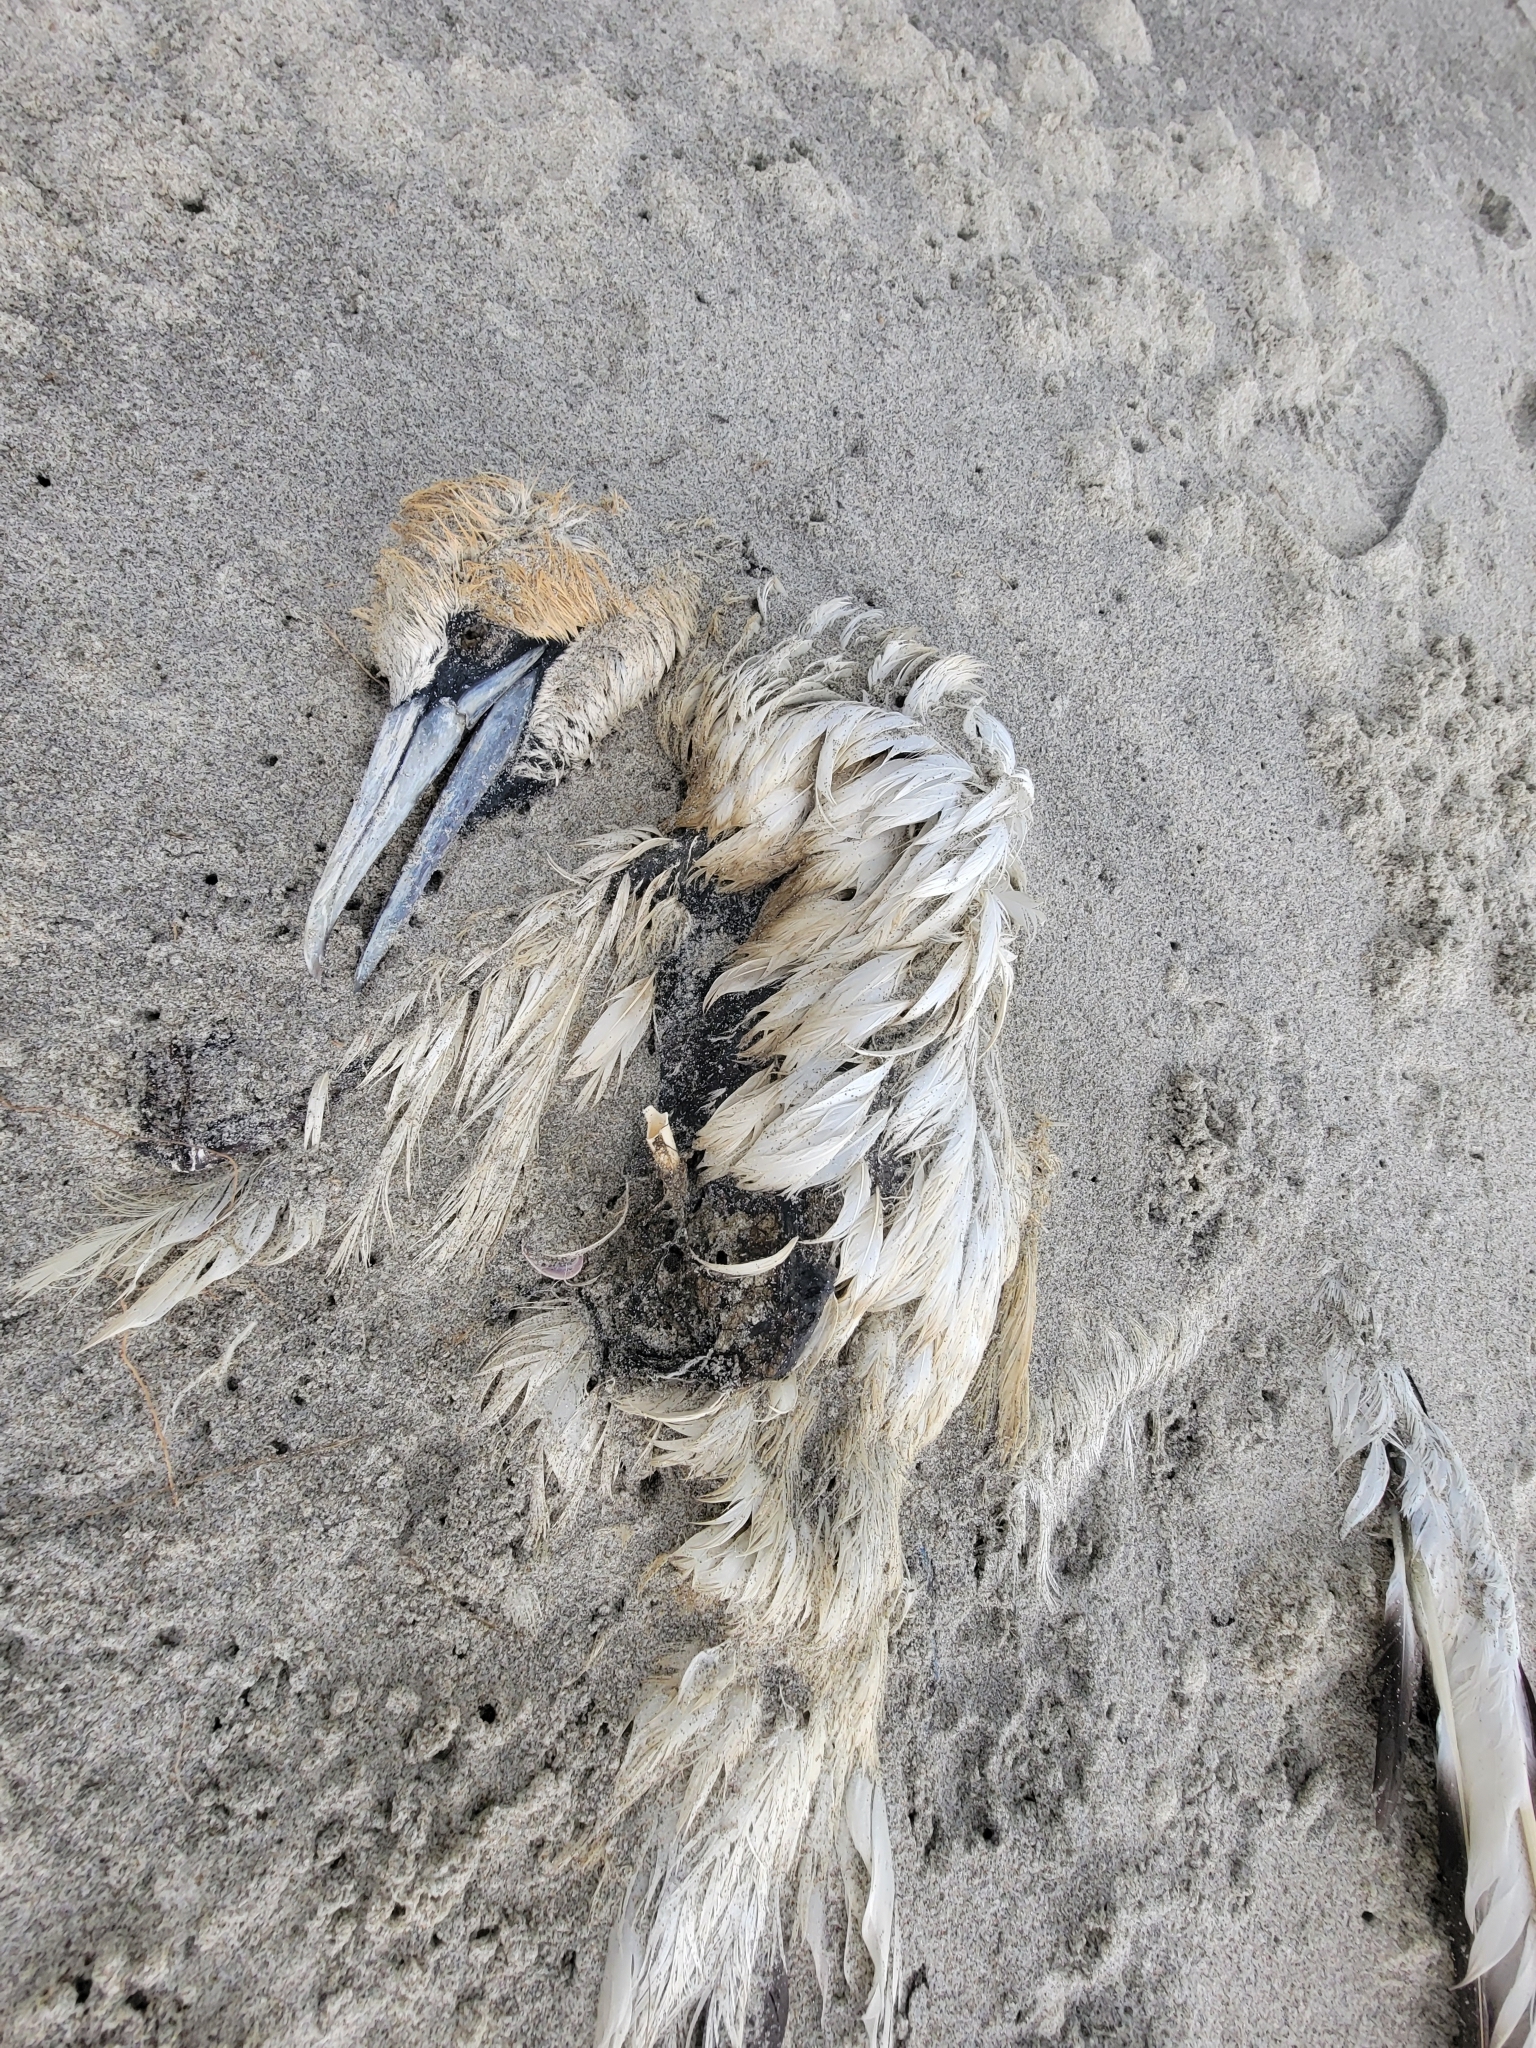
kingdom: Animalia
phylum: Chordata
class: Aves
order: Suliformes
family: Sulidae
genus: Morus
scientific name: Morus serrator
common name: Australasian gannet
